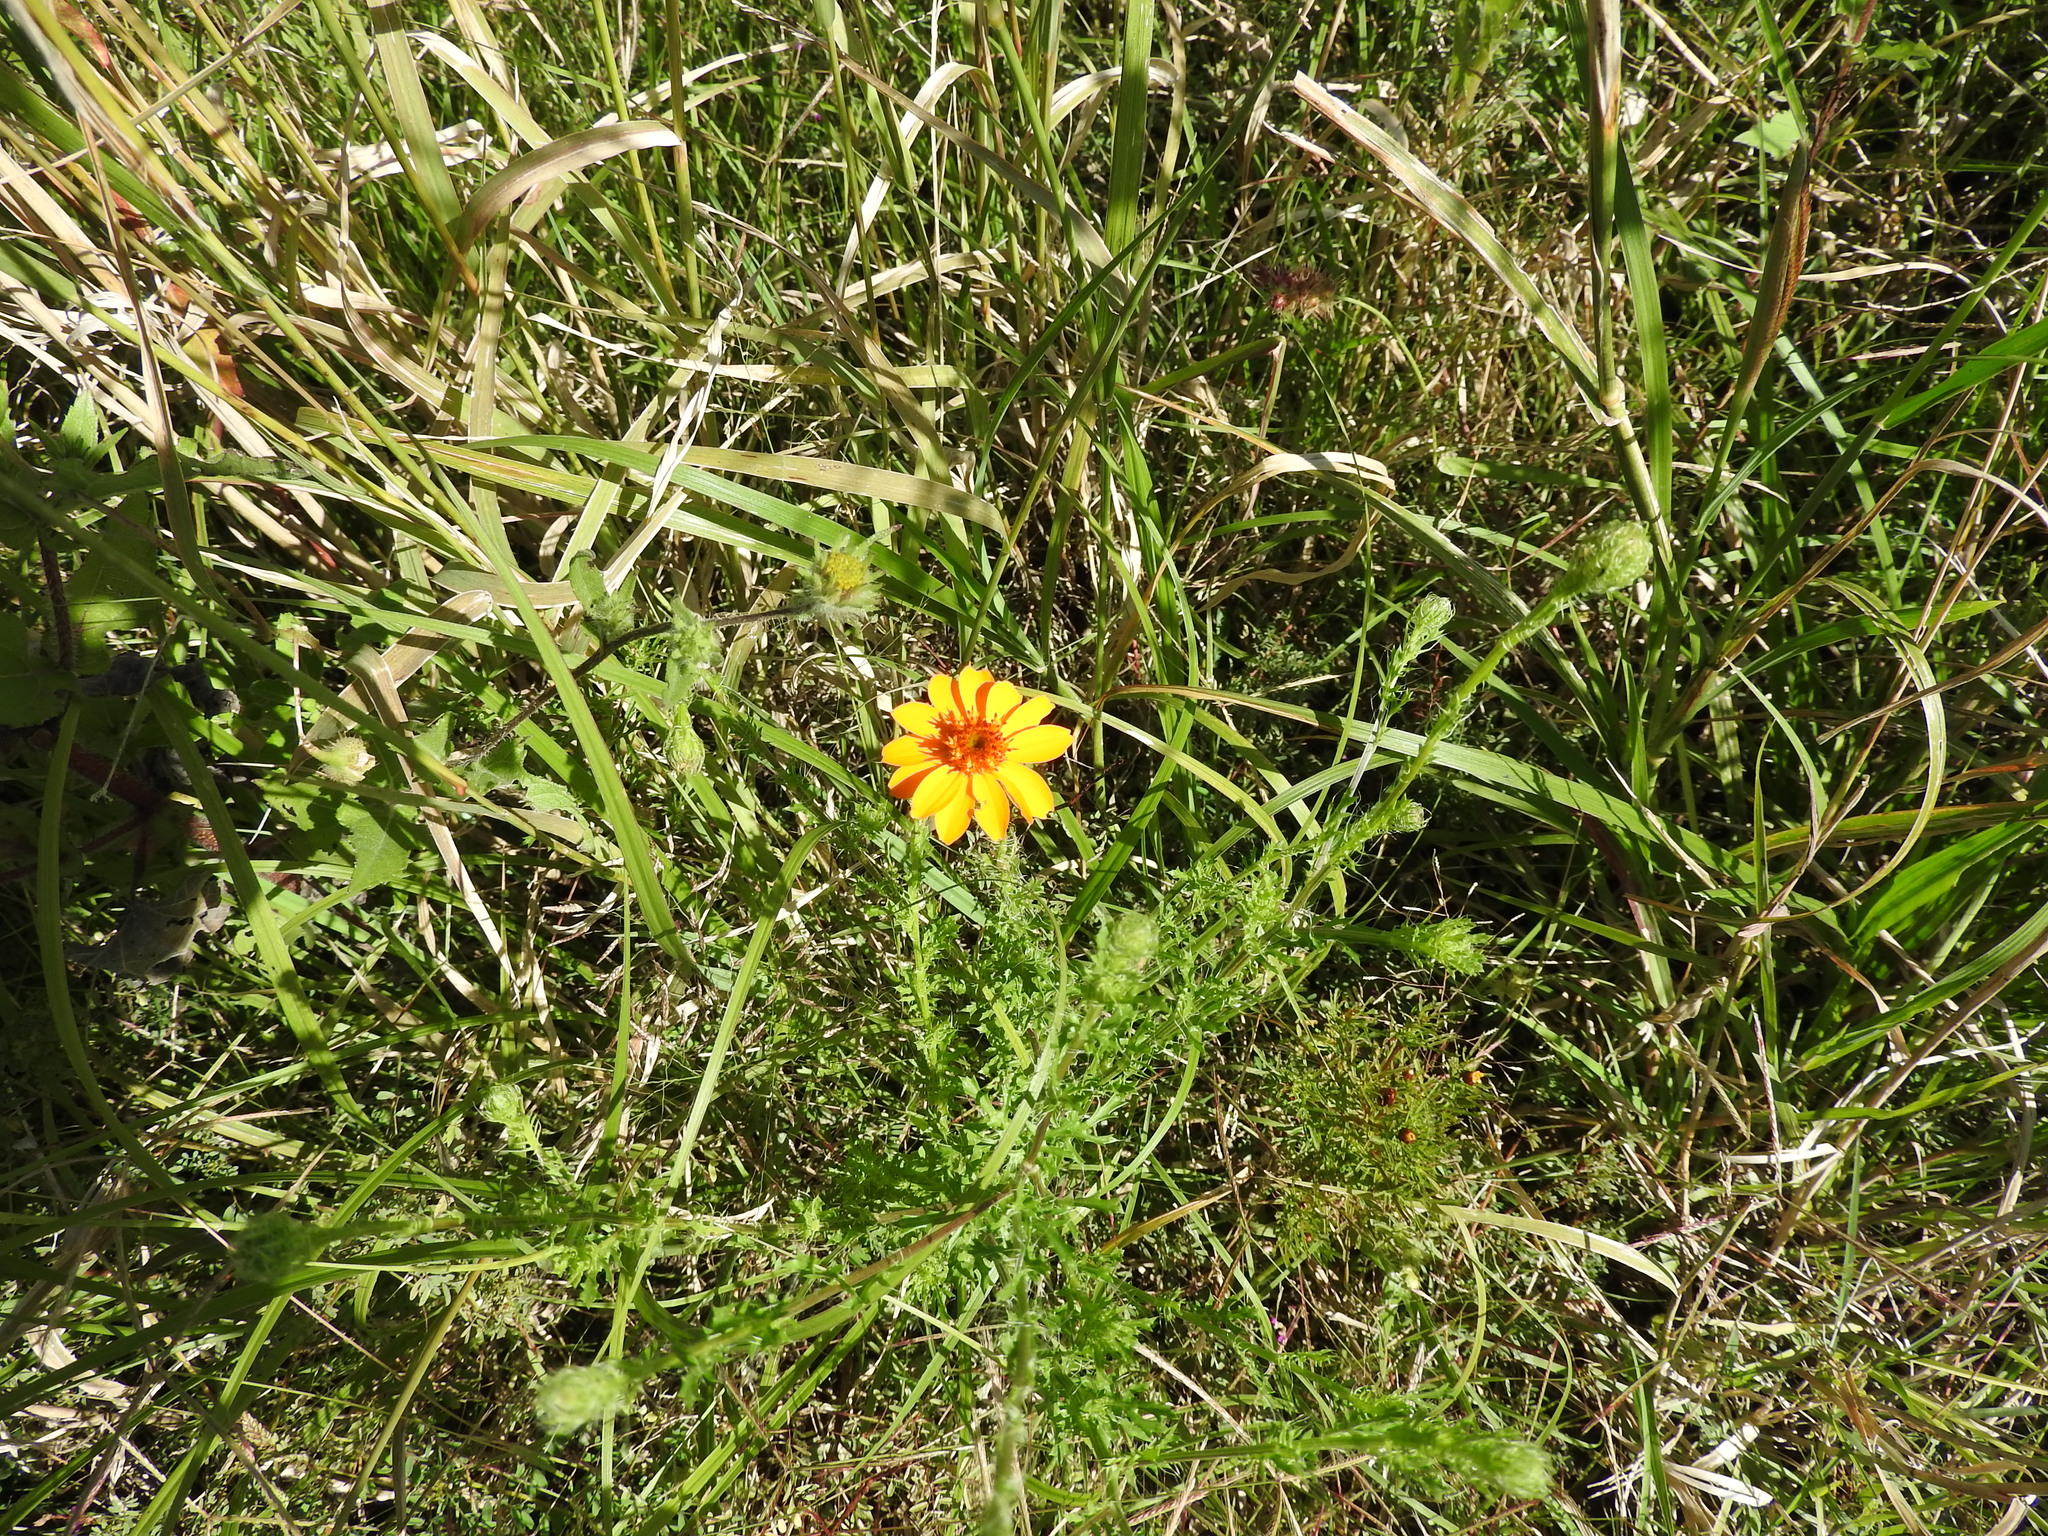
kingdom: Plantae
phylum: Tracheophyta
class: Magnoliopsida
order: Asterales
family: Asteraceae
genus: Adenophyllum
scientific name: Adenophyllum cancellatum
